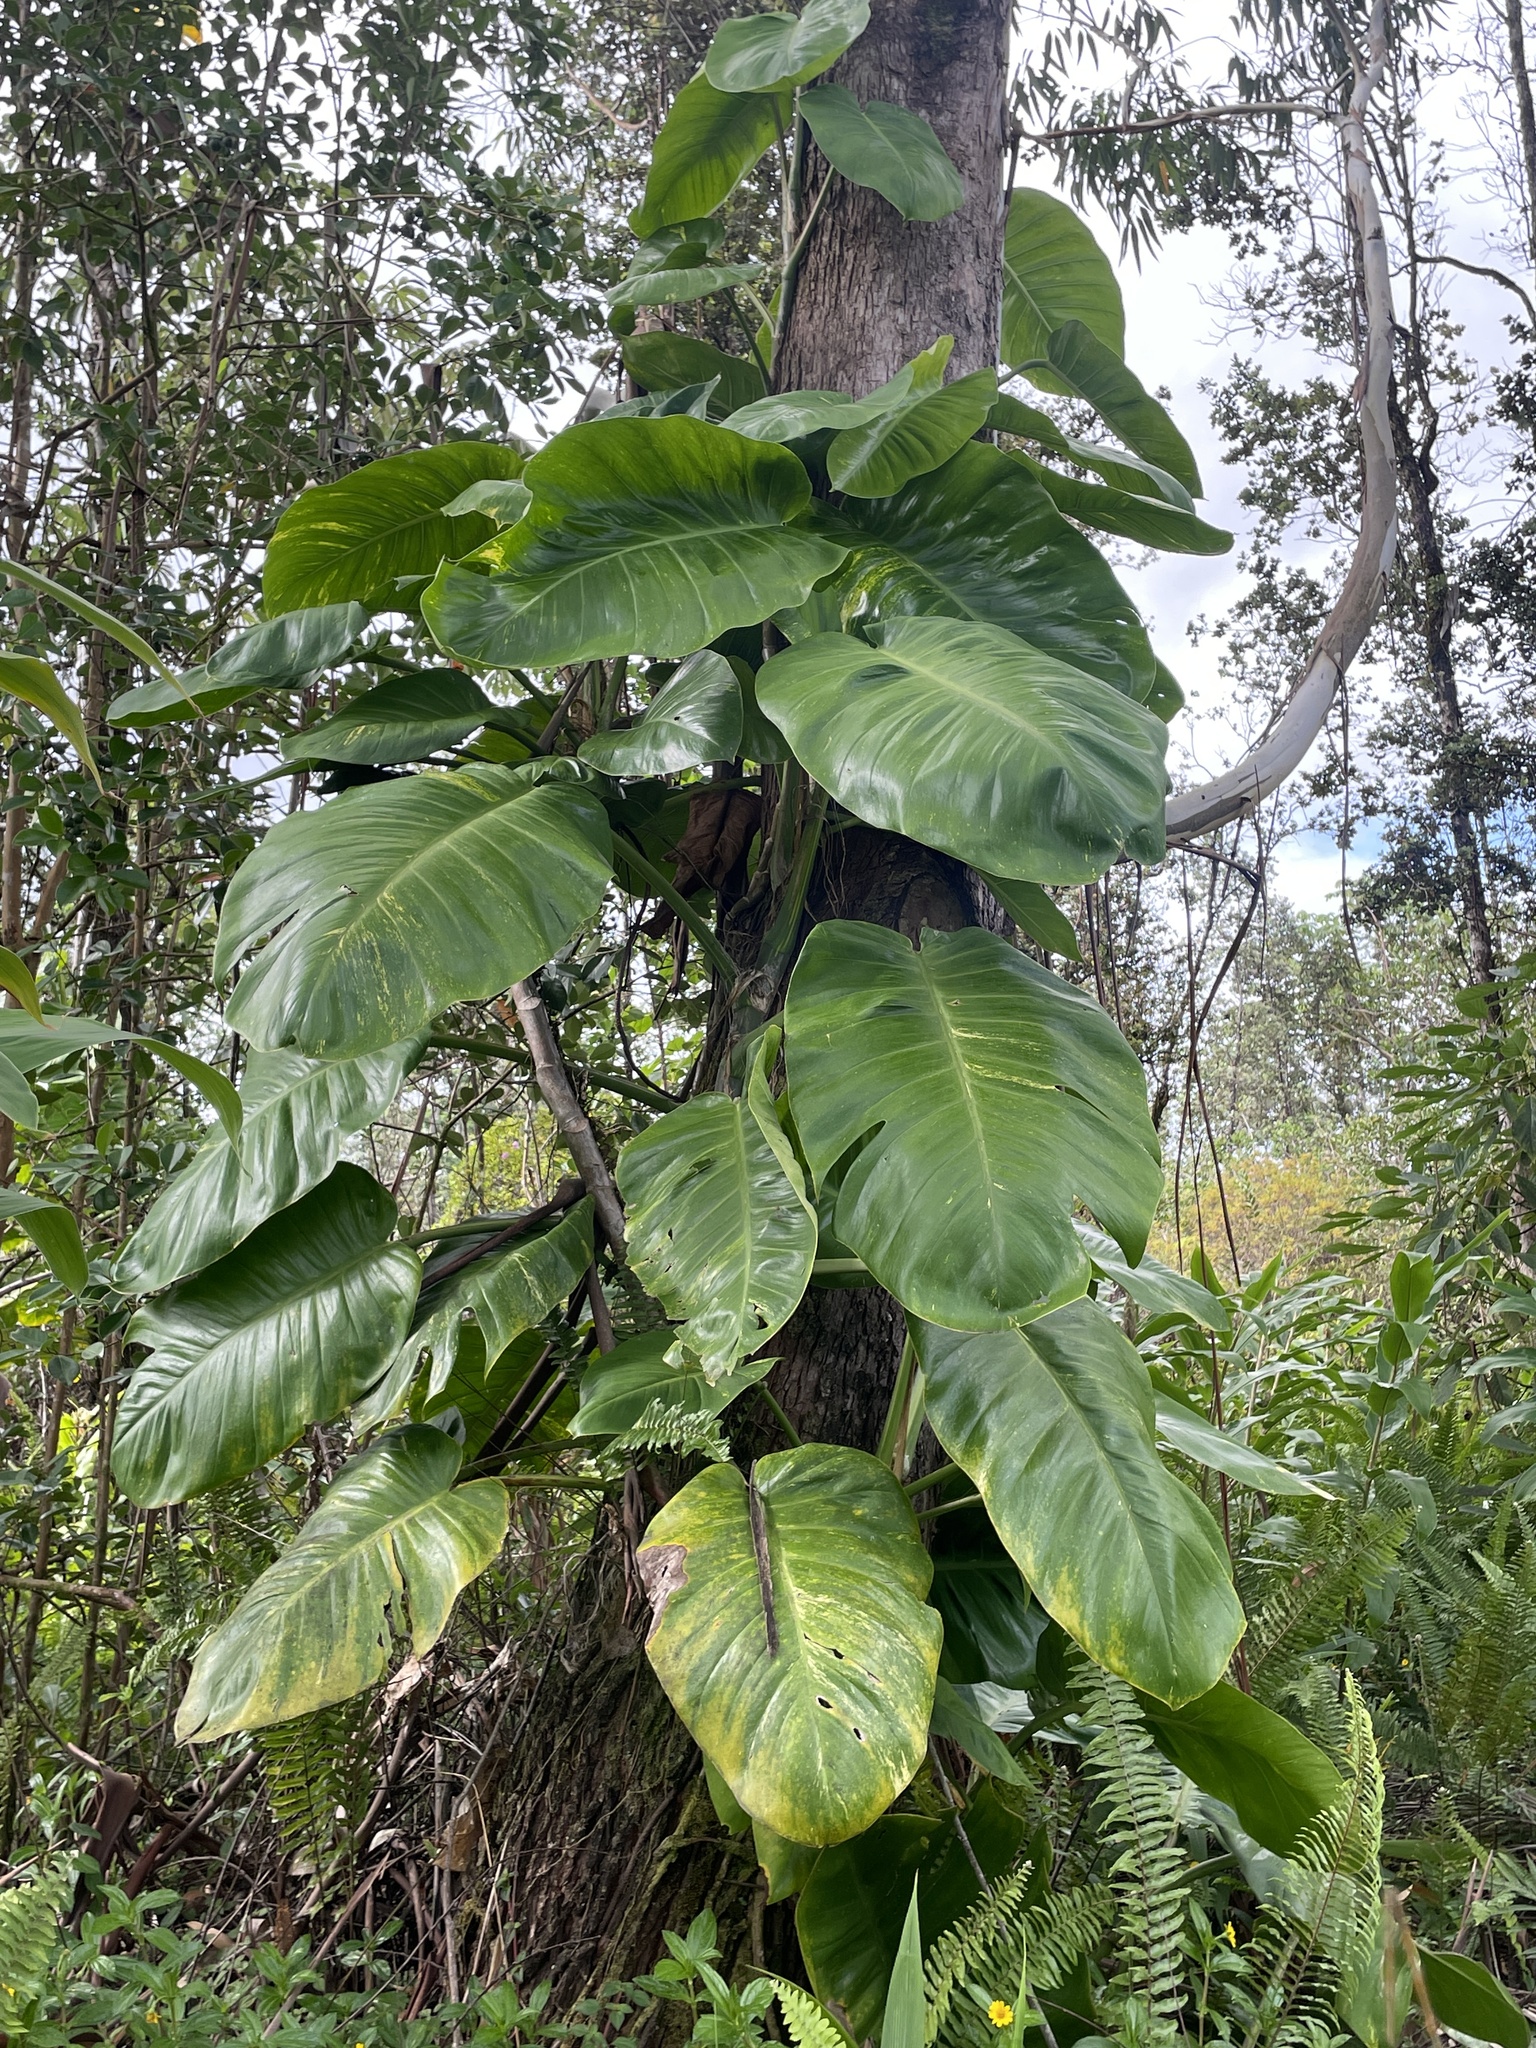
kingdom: Plantae
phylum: Tracheophyta
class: Liliopsida
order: Alismatales
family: Araceae
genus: Epipremnum
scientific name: Epipremnum aureum
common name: Golden hunter's-robe
